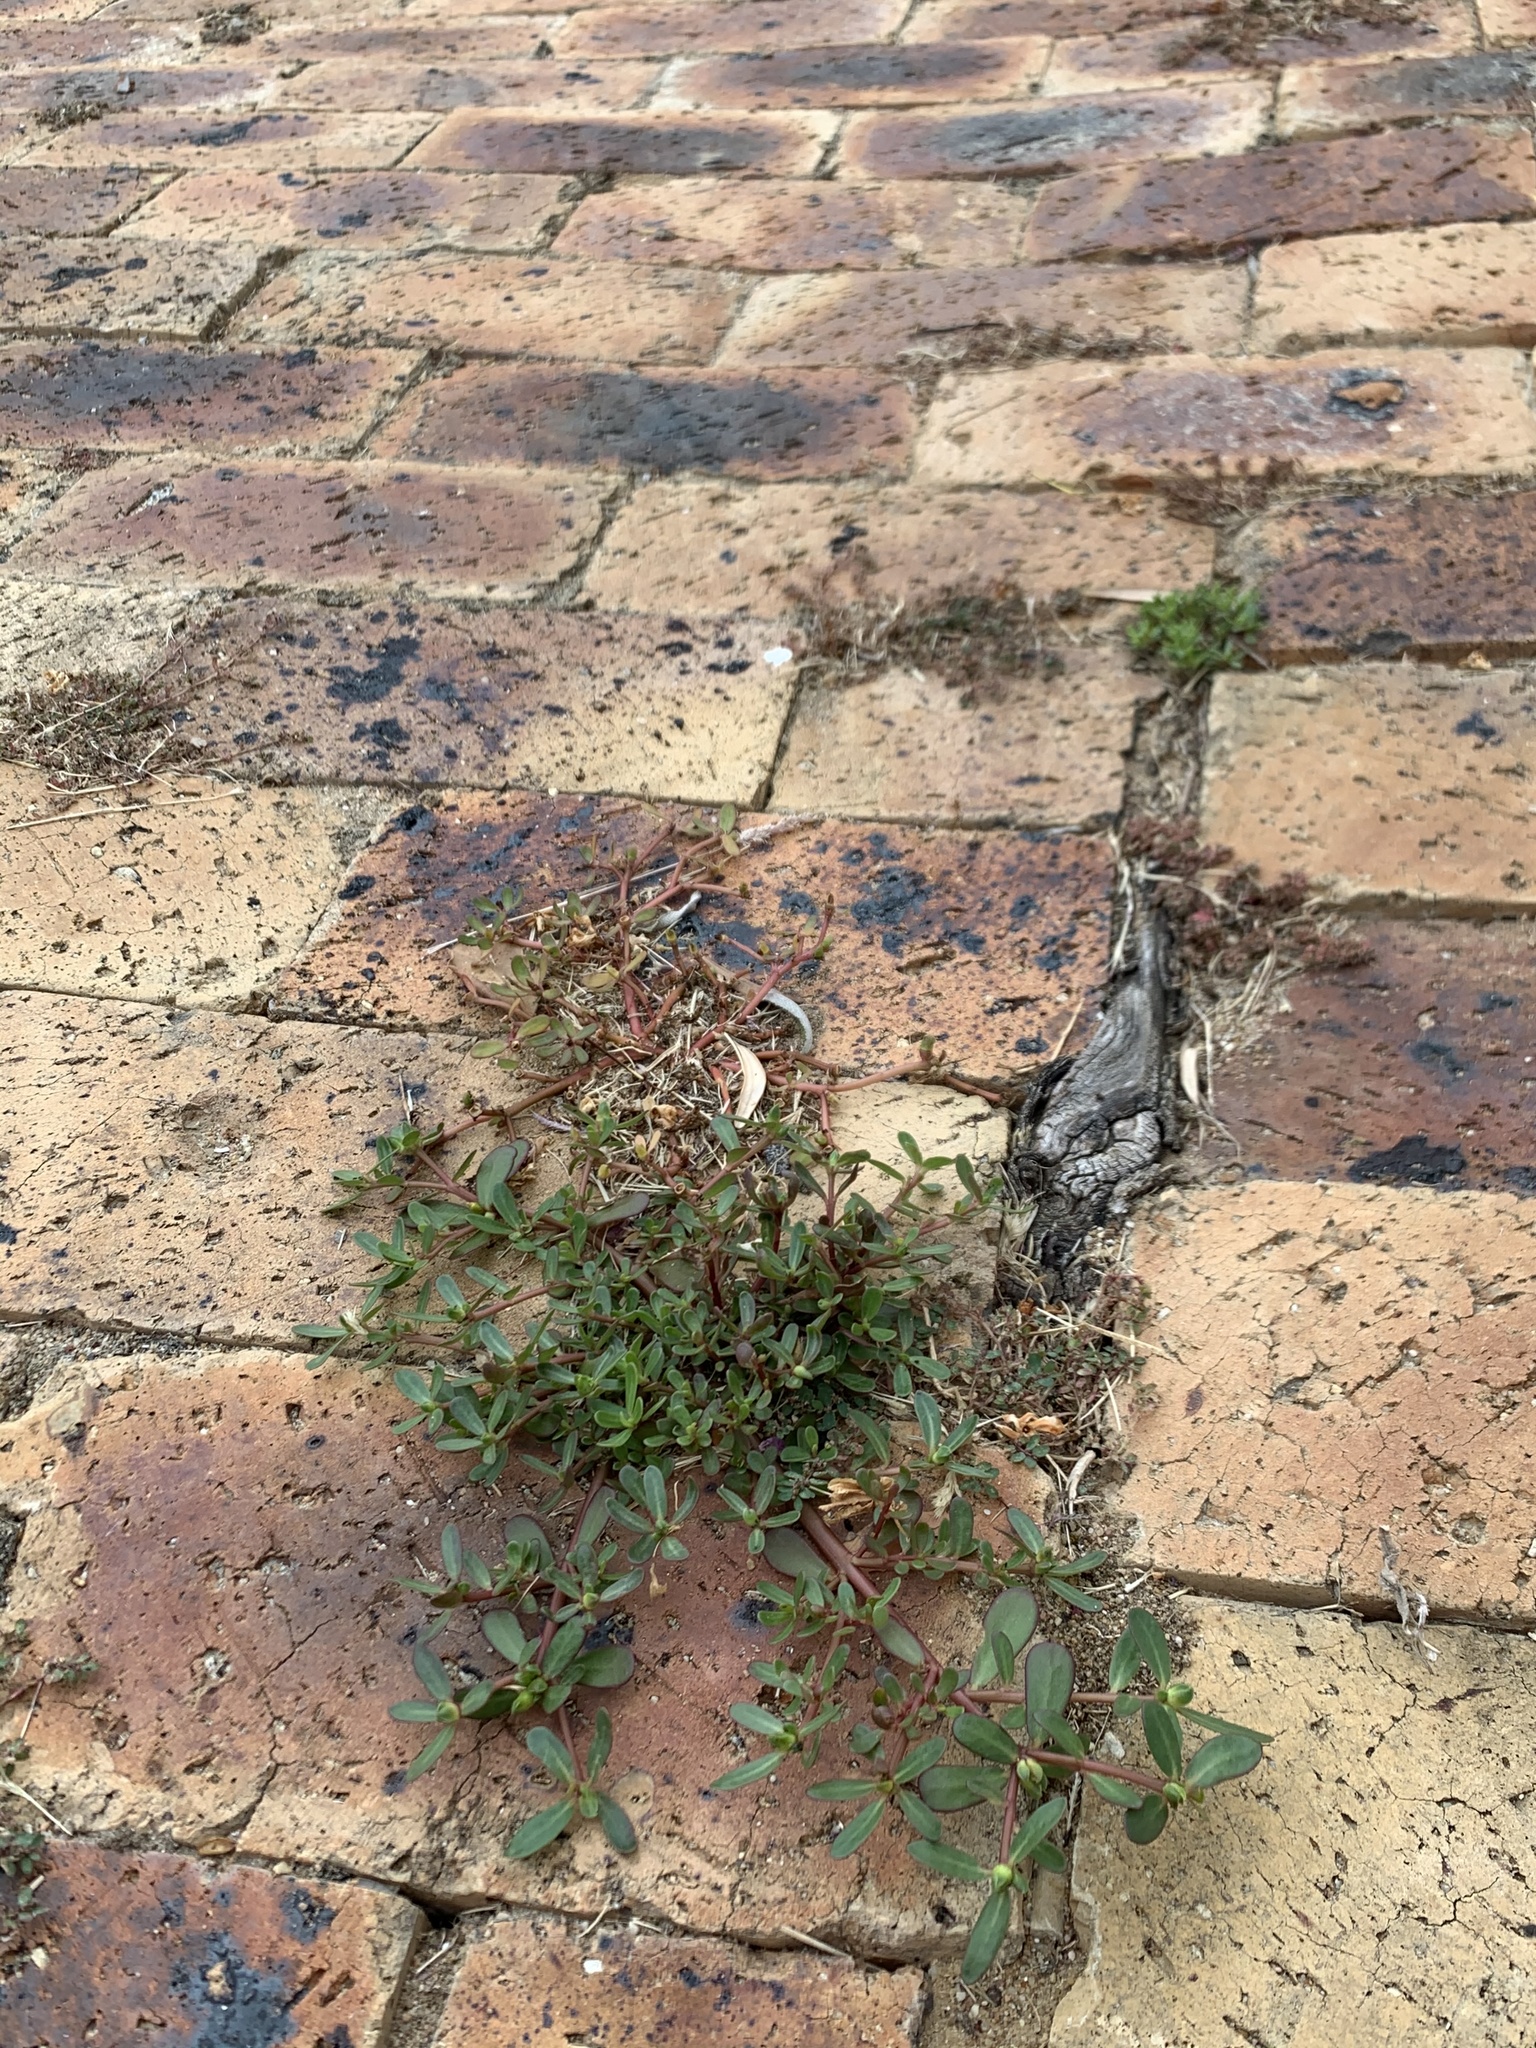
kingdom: Plantae
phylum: Tracheophyta
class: Magnoliopsida
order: Caryophyllales
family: Portulacaceae
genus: Portulaca
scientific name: Portulaca oleracea
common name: Common purslane
